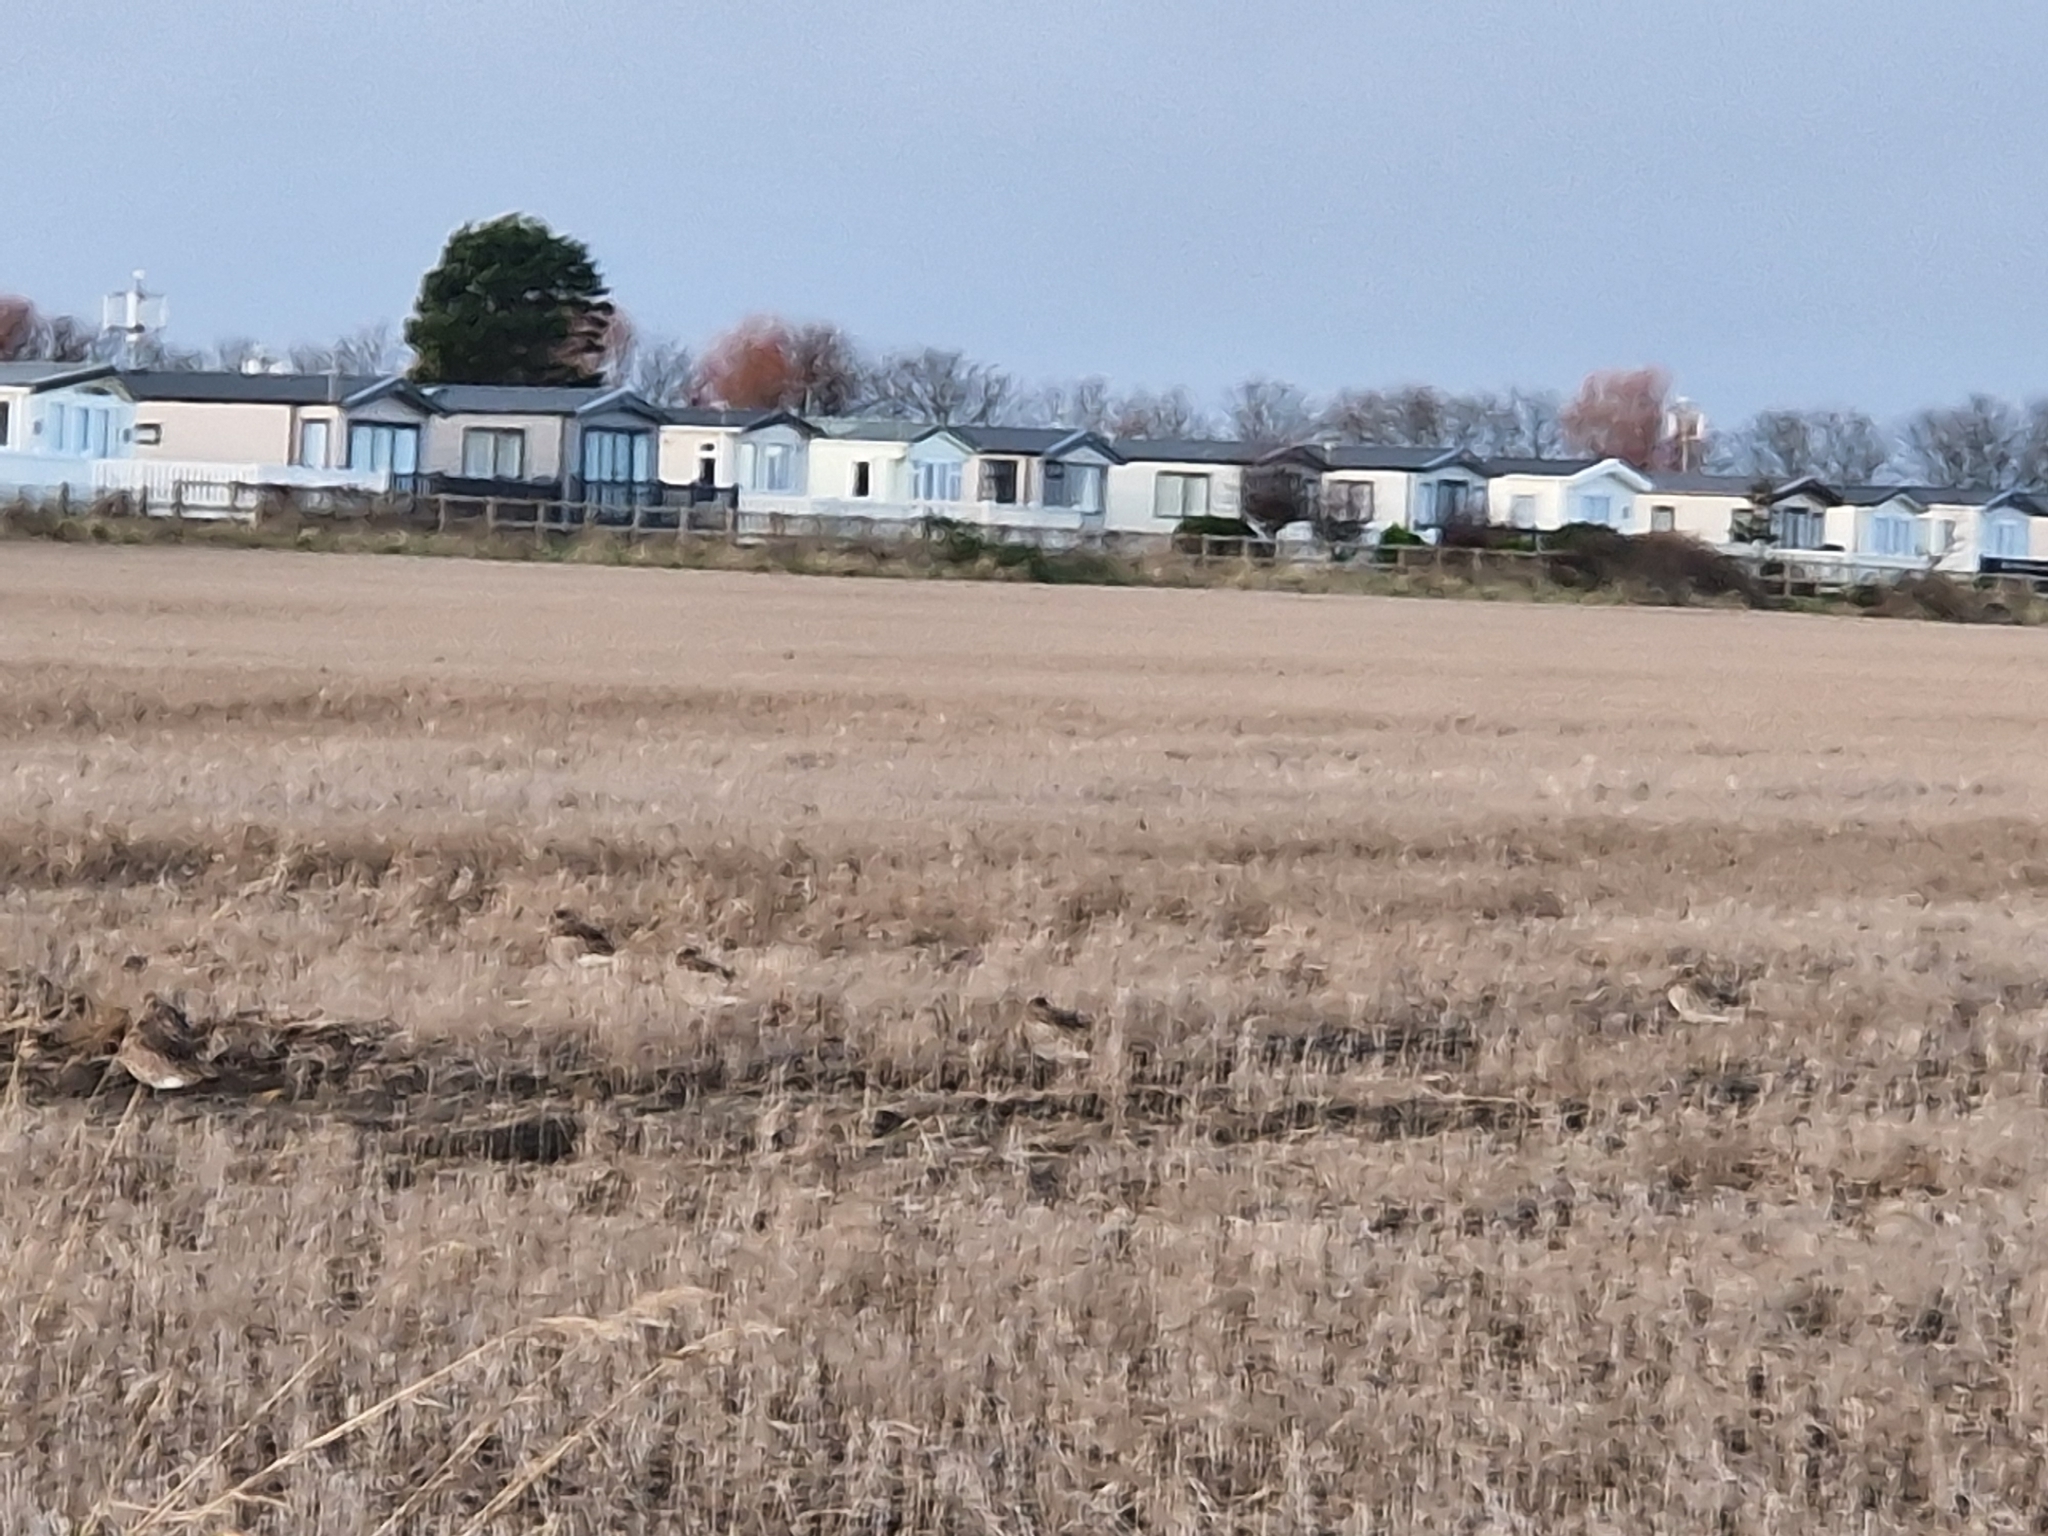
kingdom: Animalia
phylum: Chordata
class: Aves
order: Charadriiformes
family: Scolopacidae
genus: Numenius
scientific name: Numenius arquata
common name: Eurasian curlew
